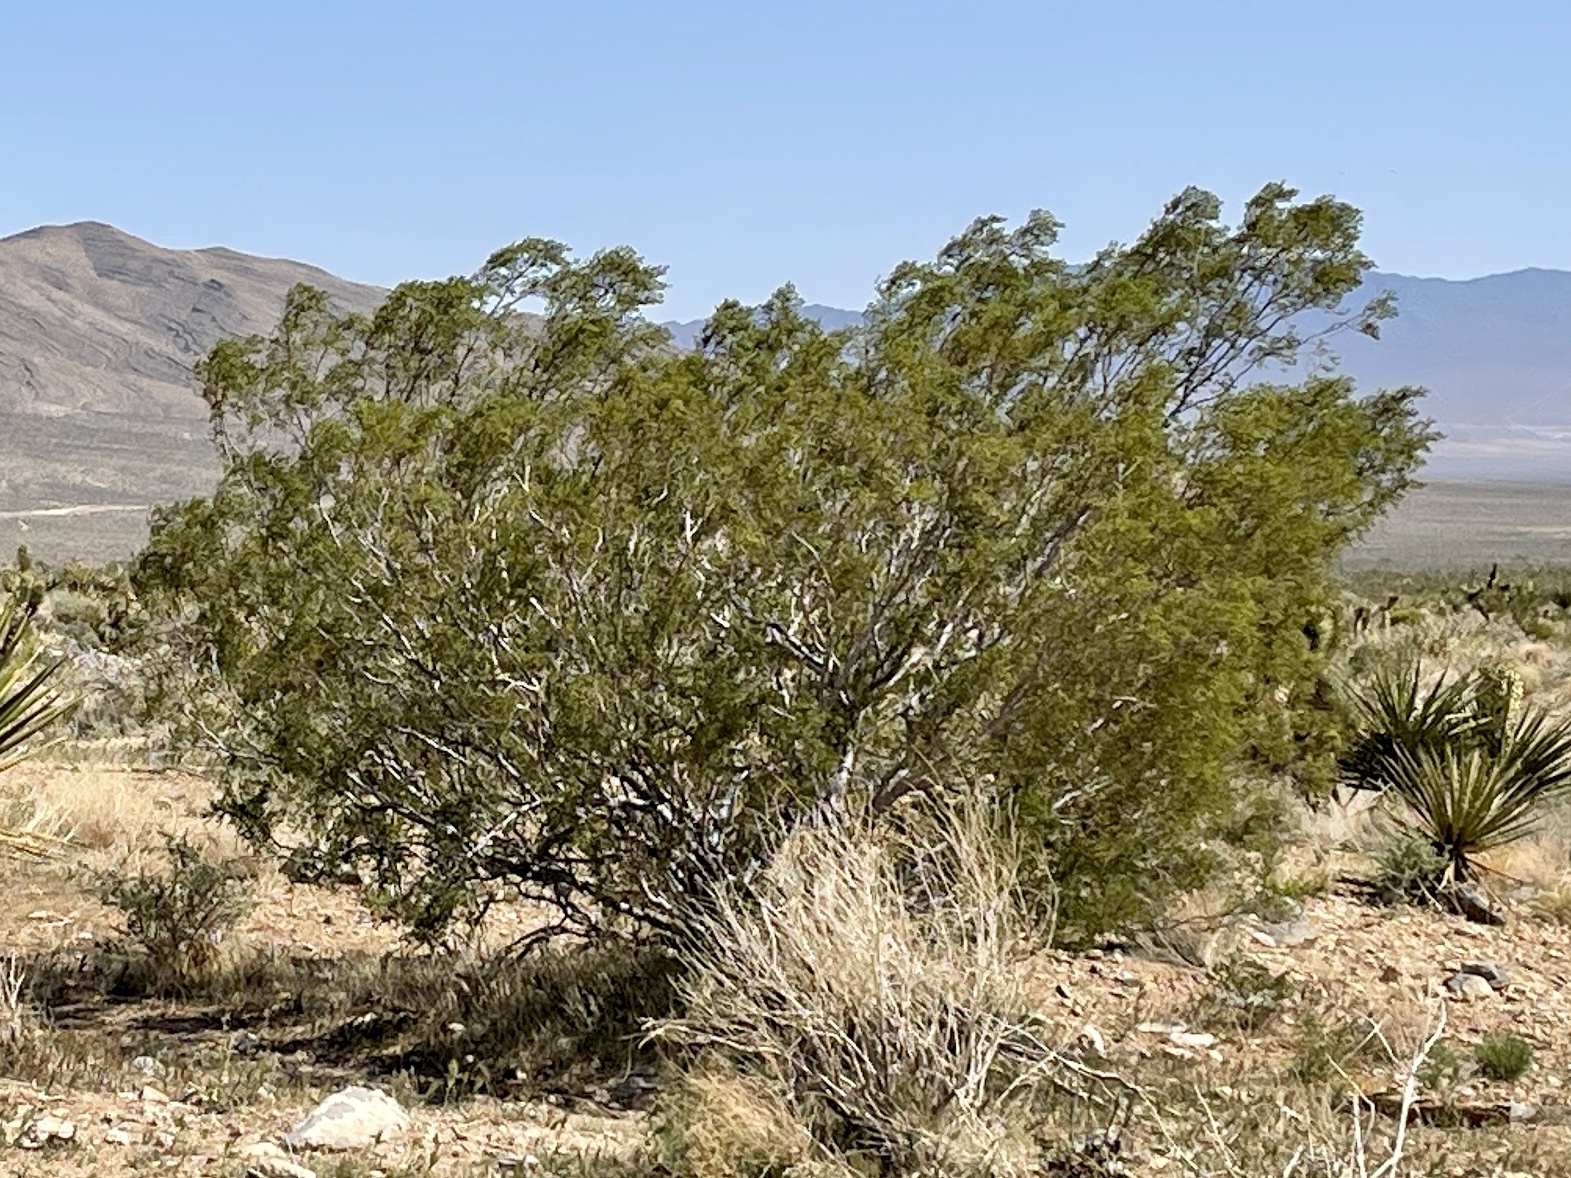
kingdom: Plantae
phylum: Tracheophyta
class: Magnoliopsida
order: Zygophyllales
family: Zygophyllaceae
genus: Larrea
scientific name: Larrea tridentata
